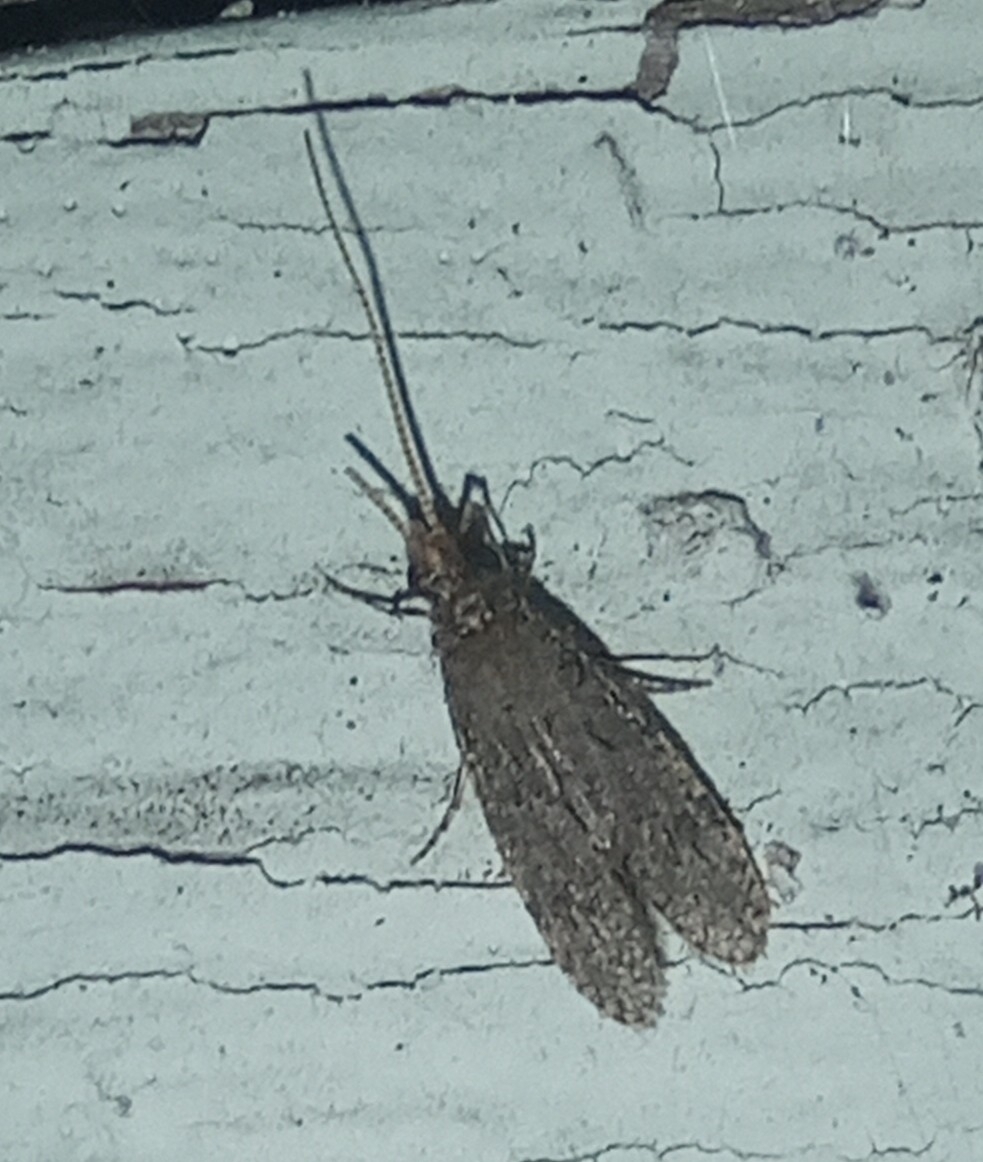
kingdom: Animalia
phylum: Arthropoda
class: Insecta
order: Trichoptera
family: Ecnomidae
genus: Ecnomus
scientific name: Ecnomus tenellus
